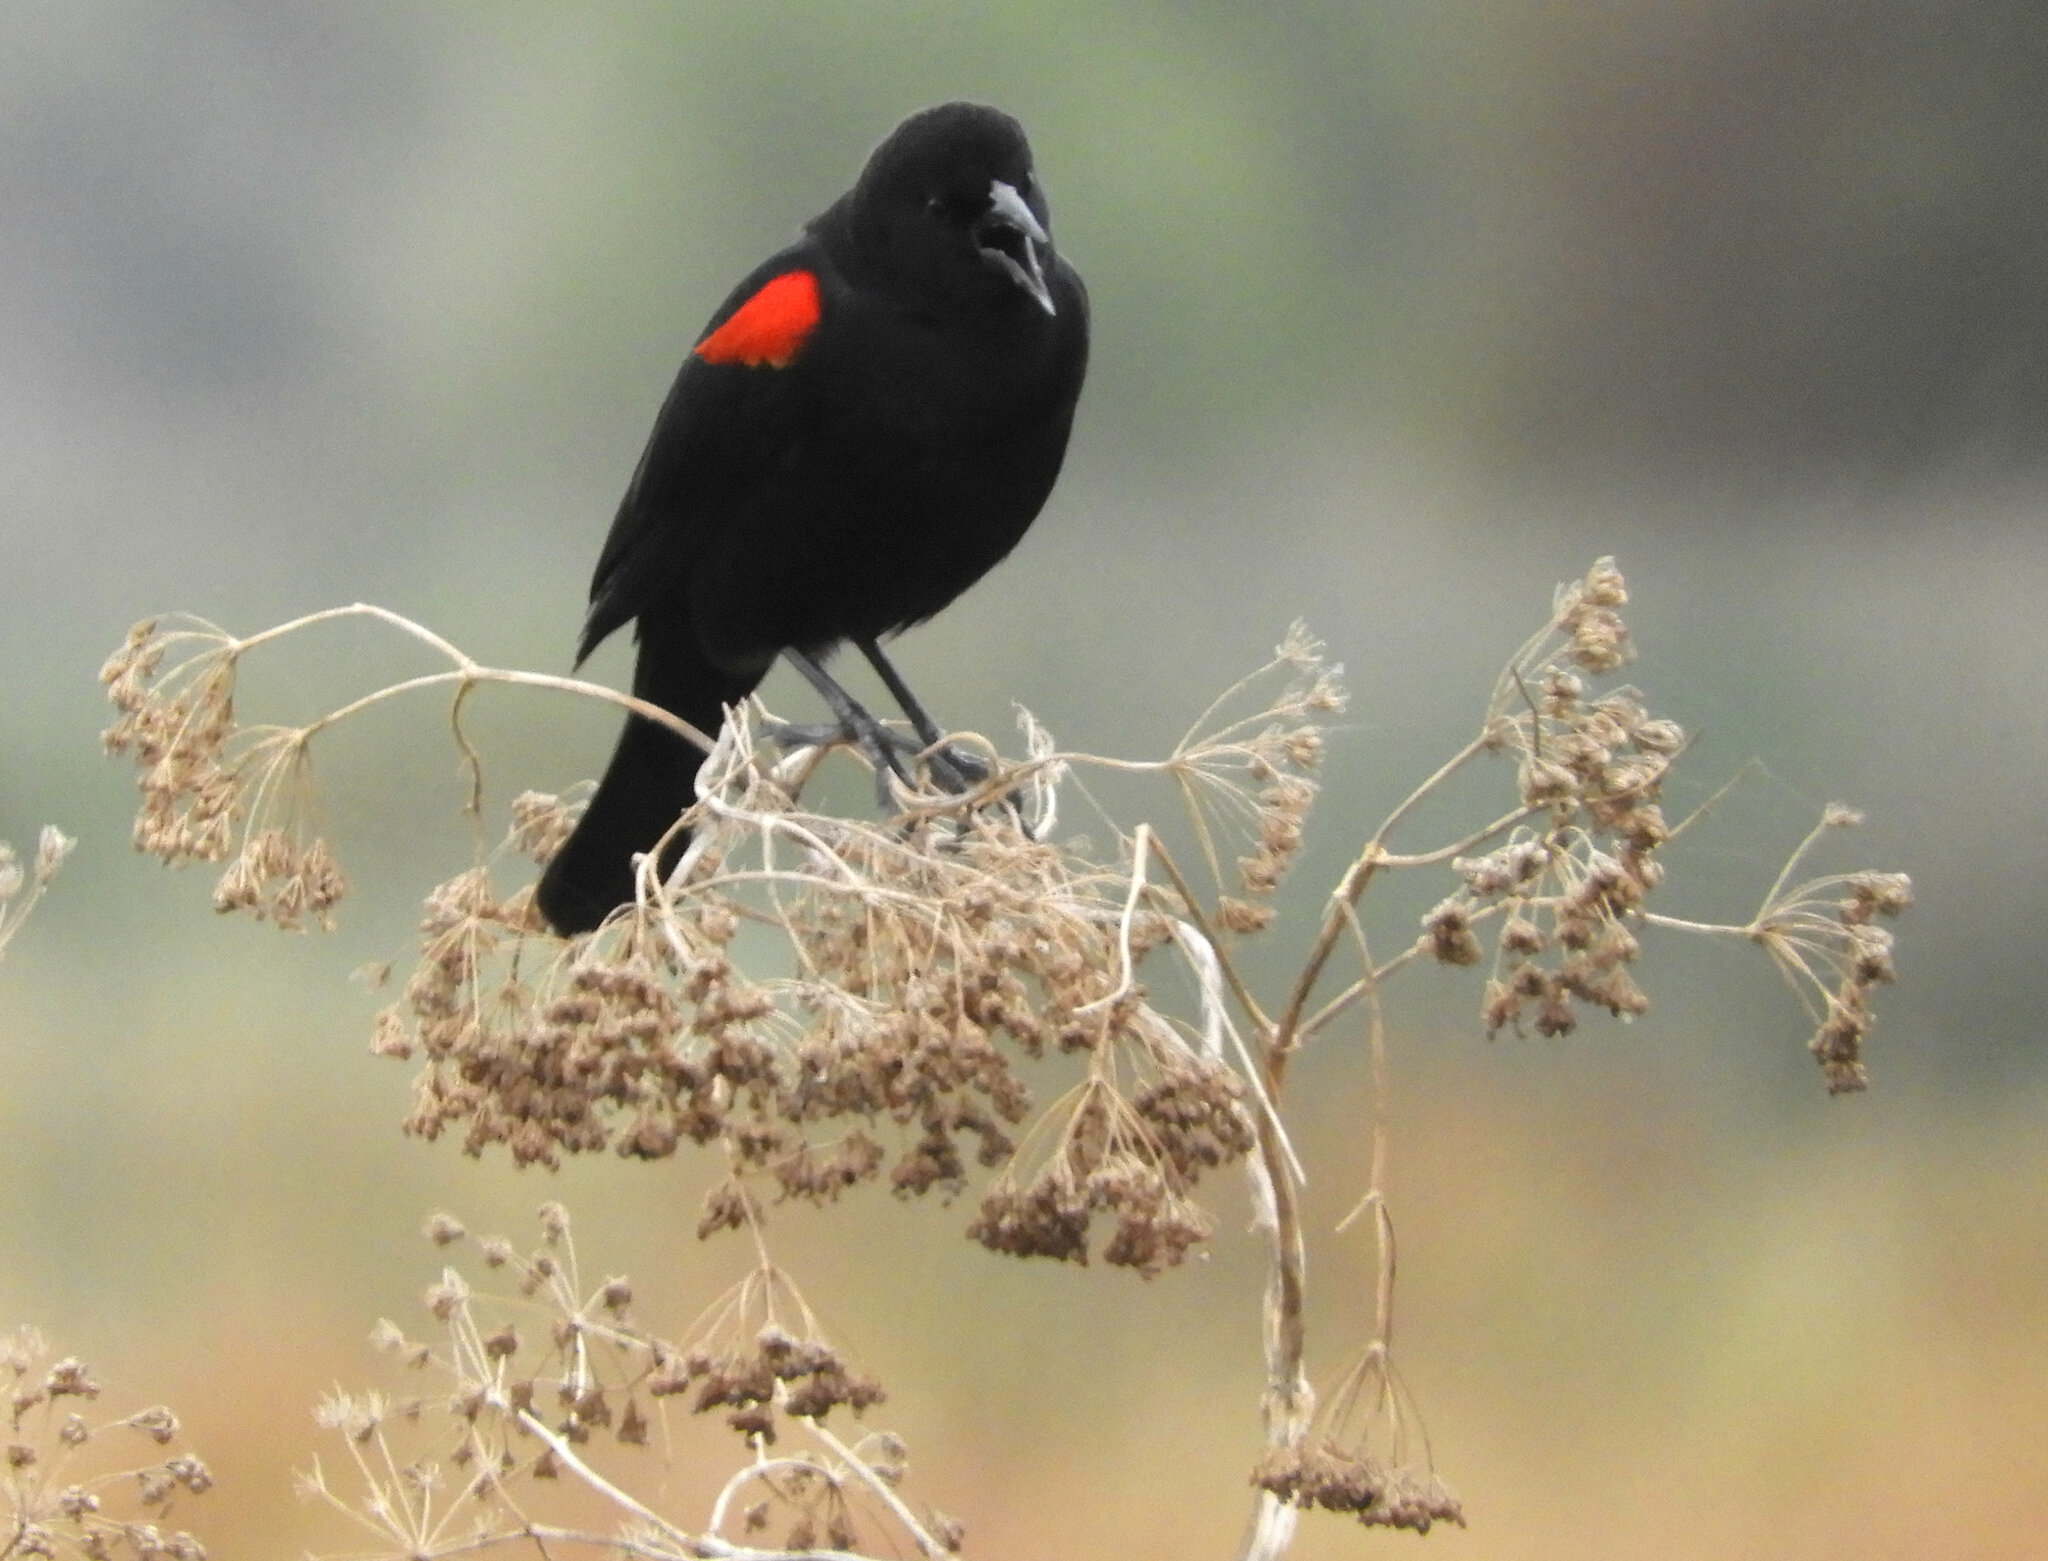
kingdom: Animalia
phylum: Chordata
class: Aves
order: Passeriformes
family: Icteridae
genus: Agelaius
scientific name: Agelaius phoeniceus
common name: Red-winged blackbird
